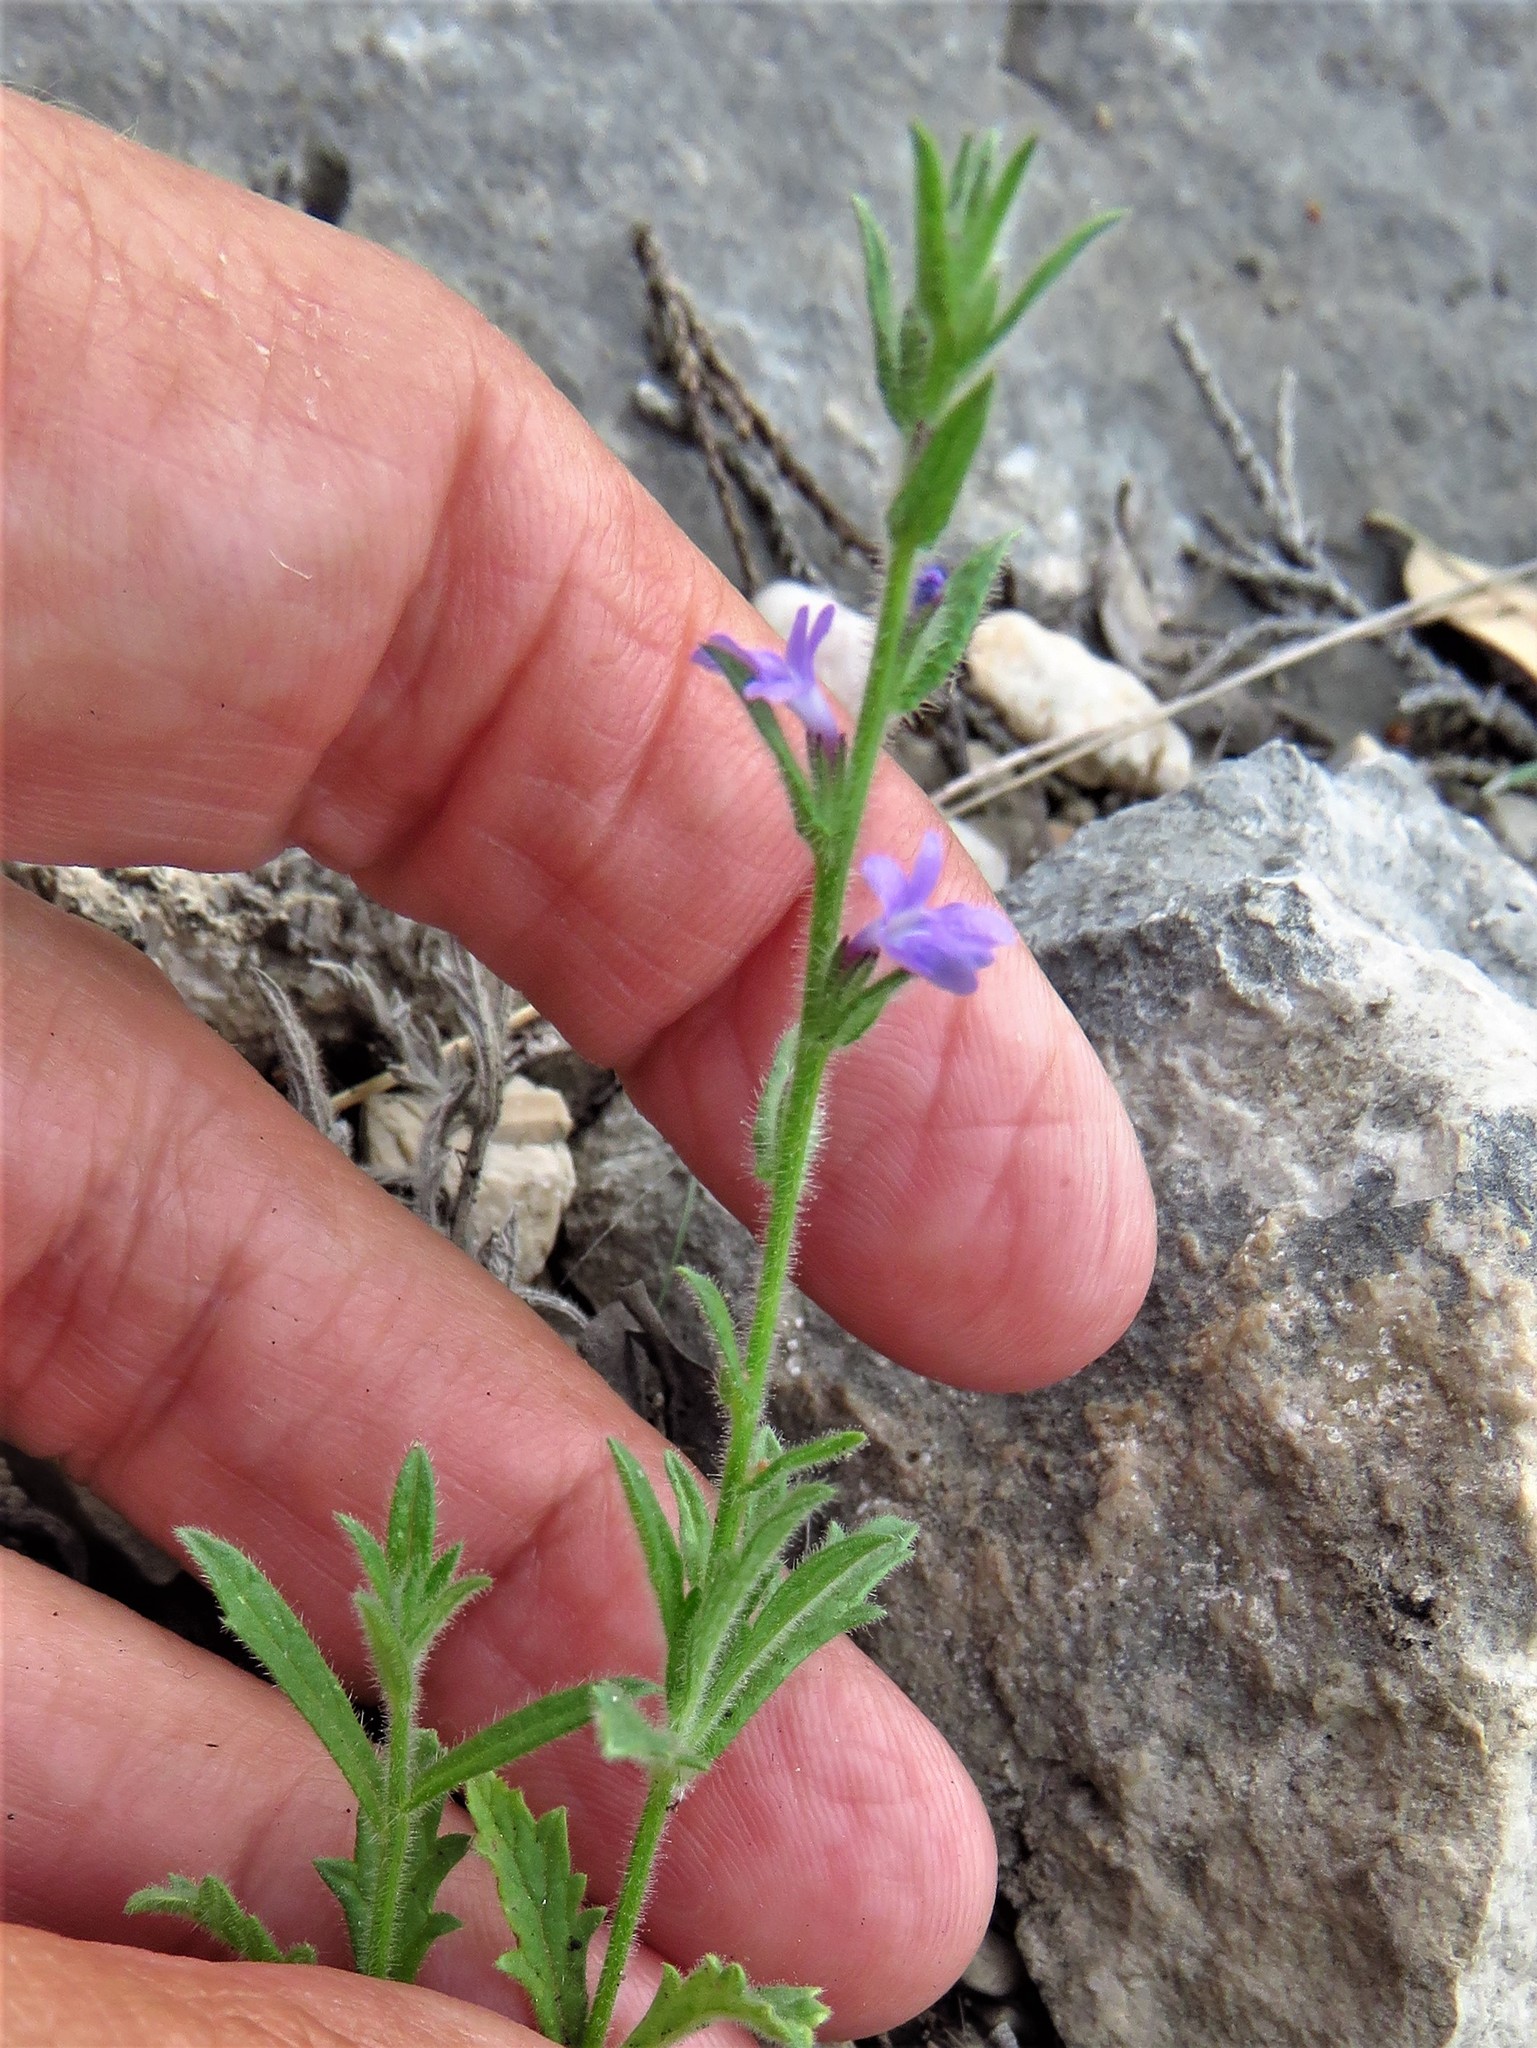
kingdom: Plantae
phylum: Tracheophyta
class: Magnoliopsida
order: Lamiales
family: Verbenaceae
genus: Verbena
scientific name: Verbena canescens
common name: Gray vervain
